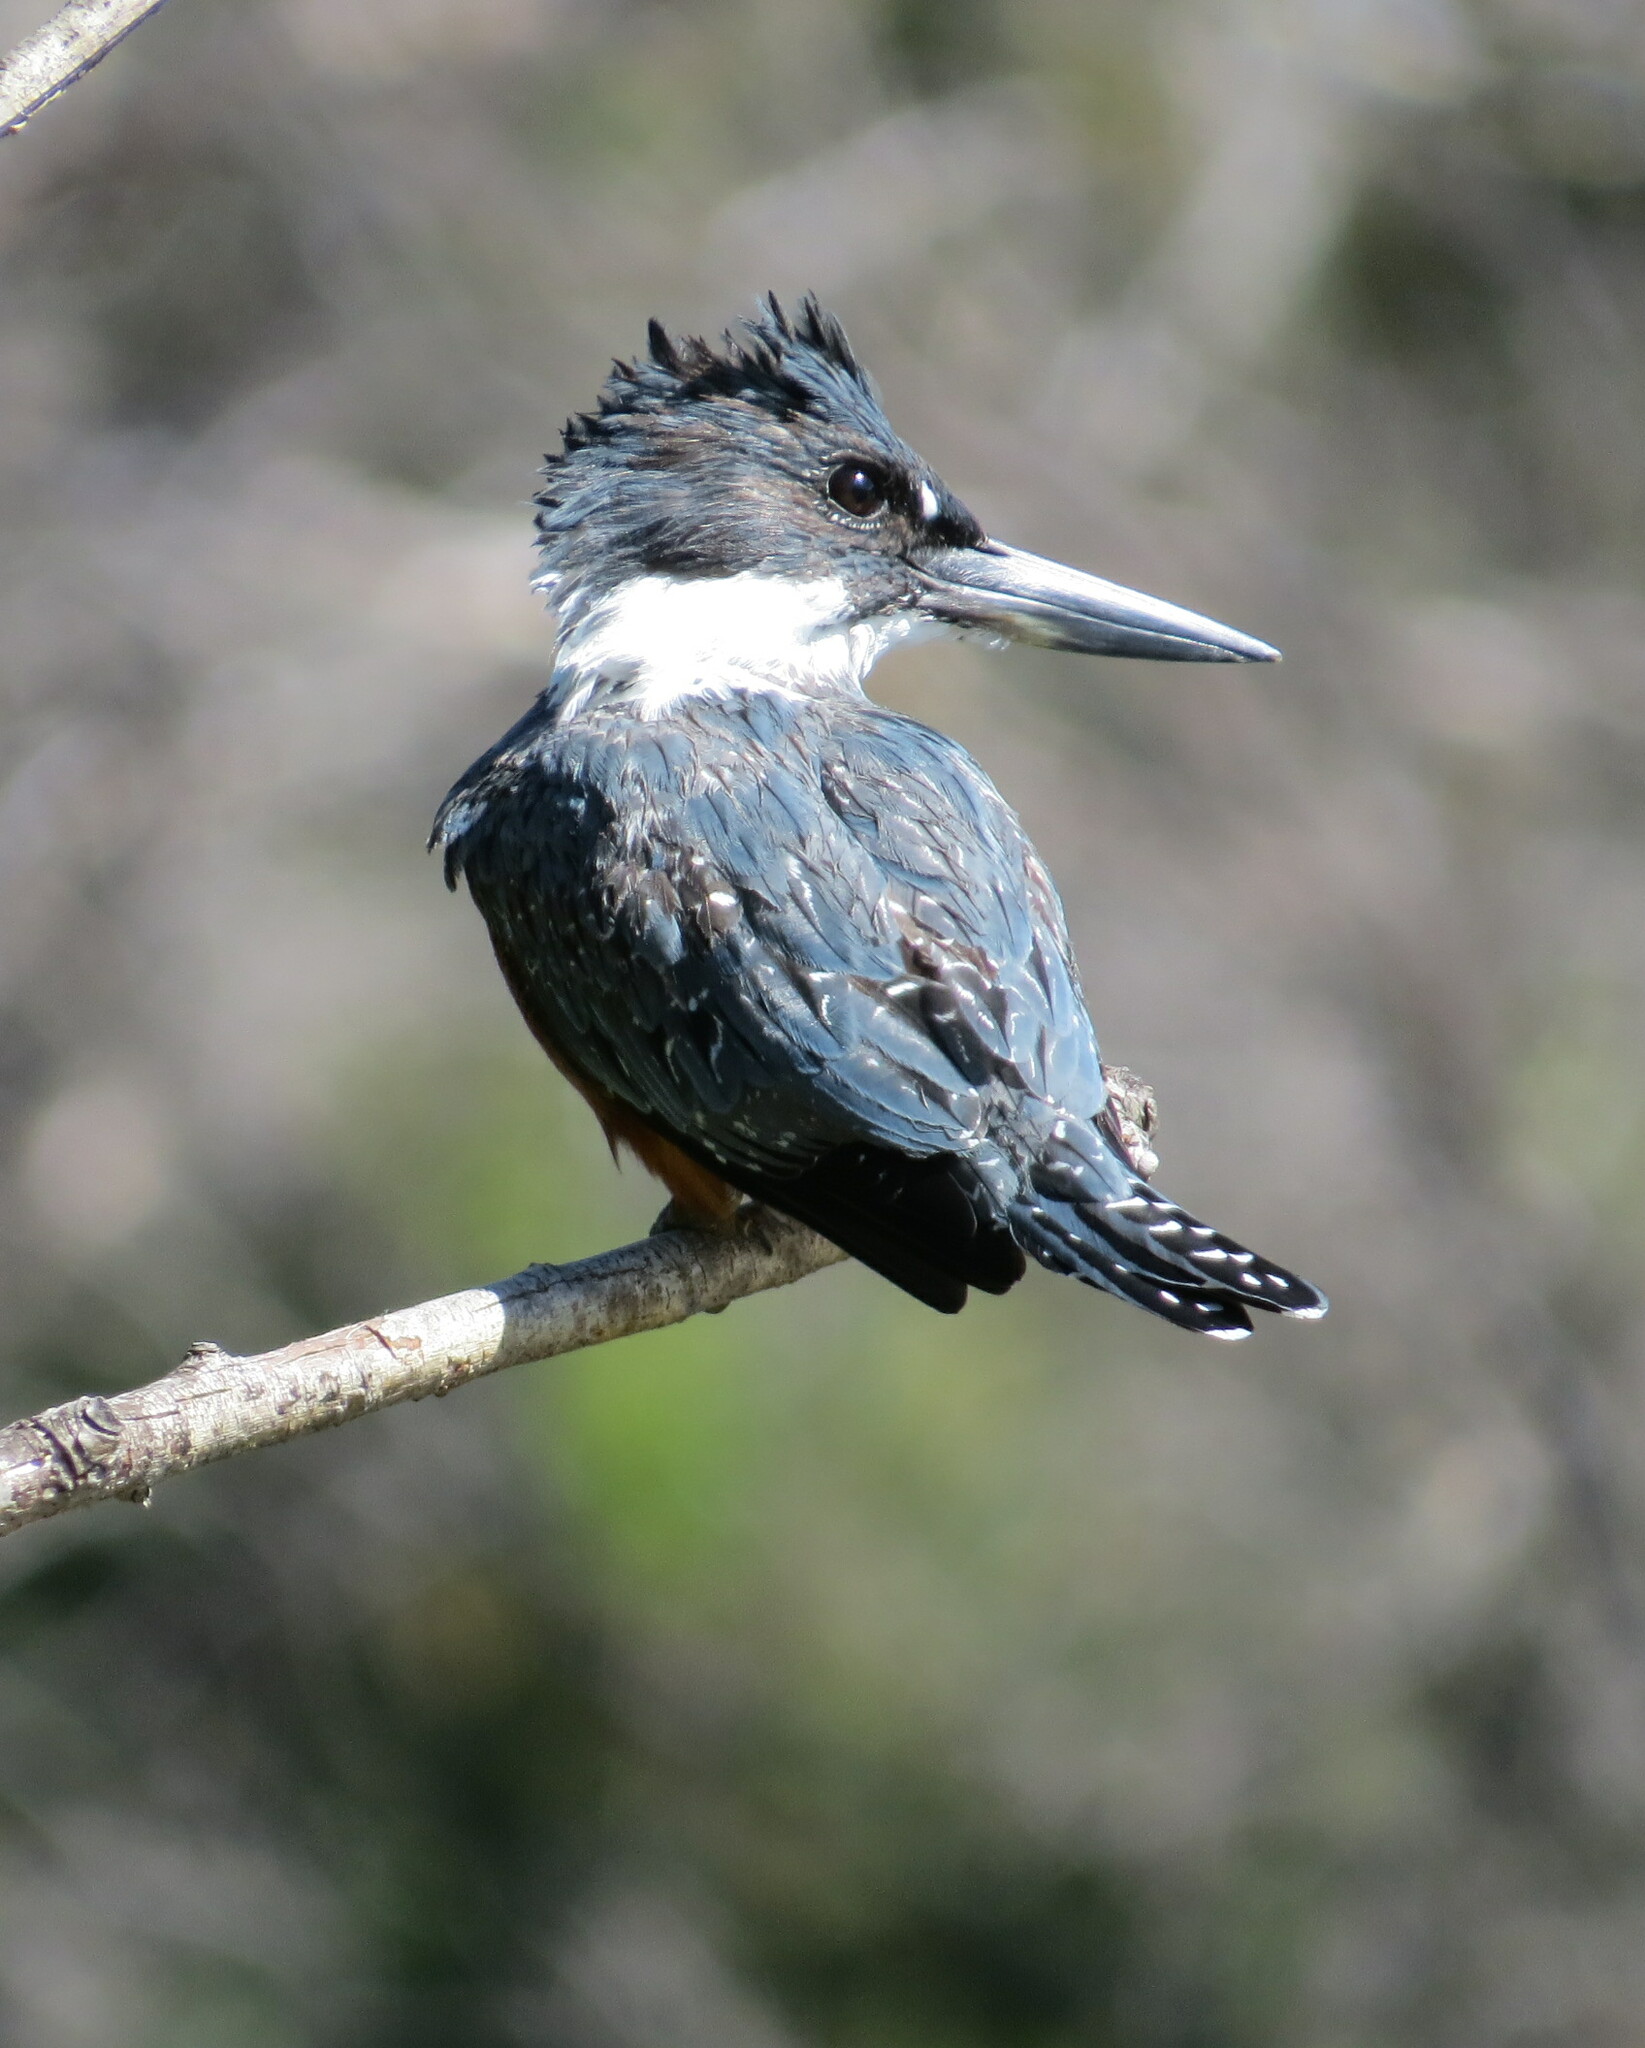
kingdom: Animalia
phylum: Chordata
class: Aves
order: Coraciiformes
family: Alcedinidae
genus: Megaceryle
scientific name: Megaceryle torquata
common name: Ringed kingfisher
